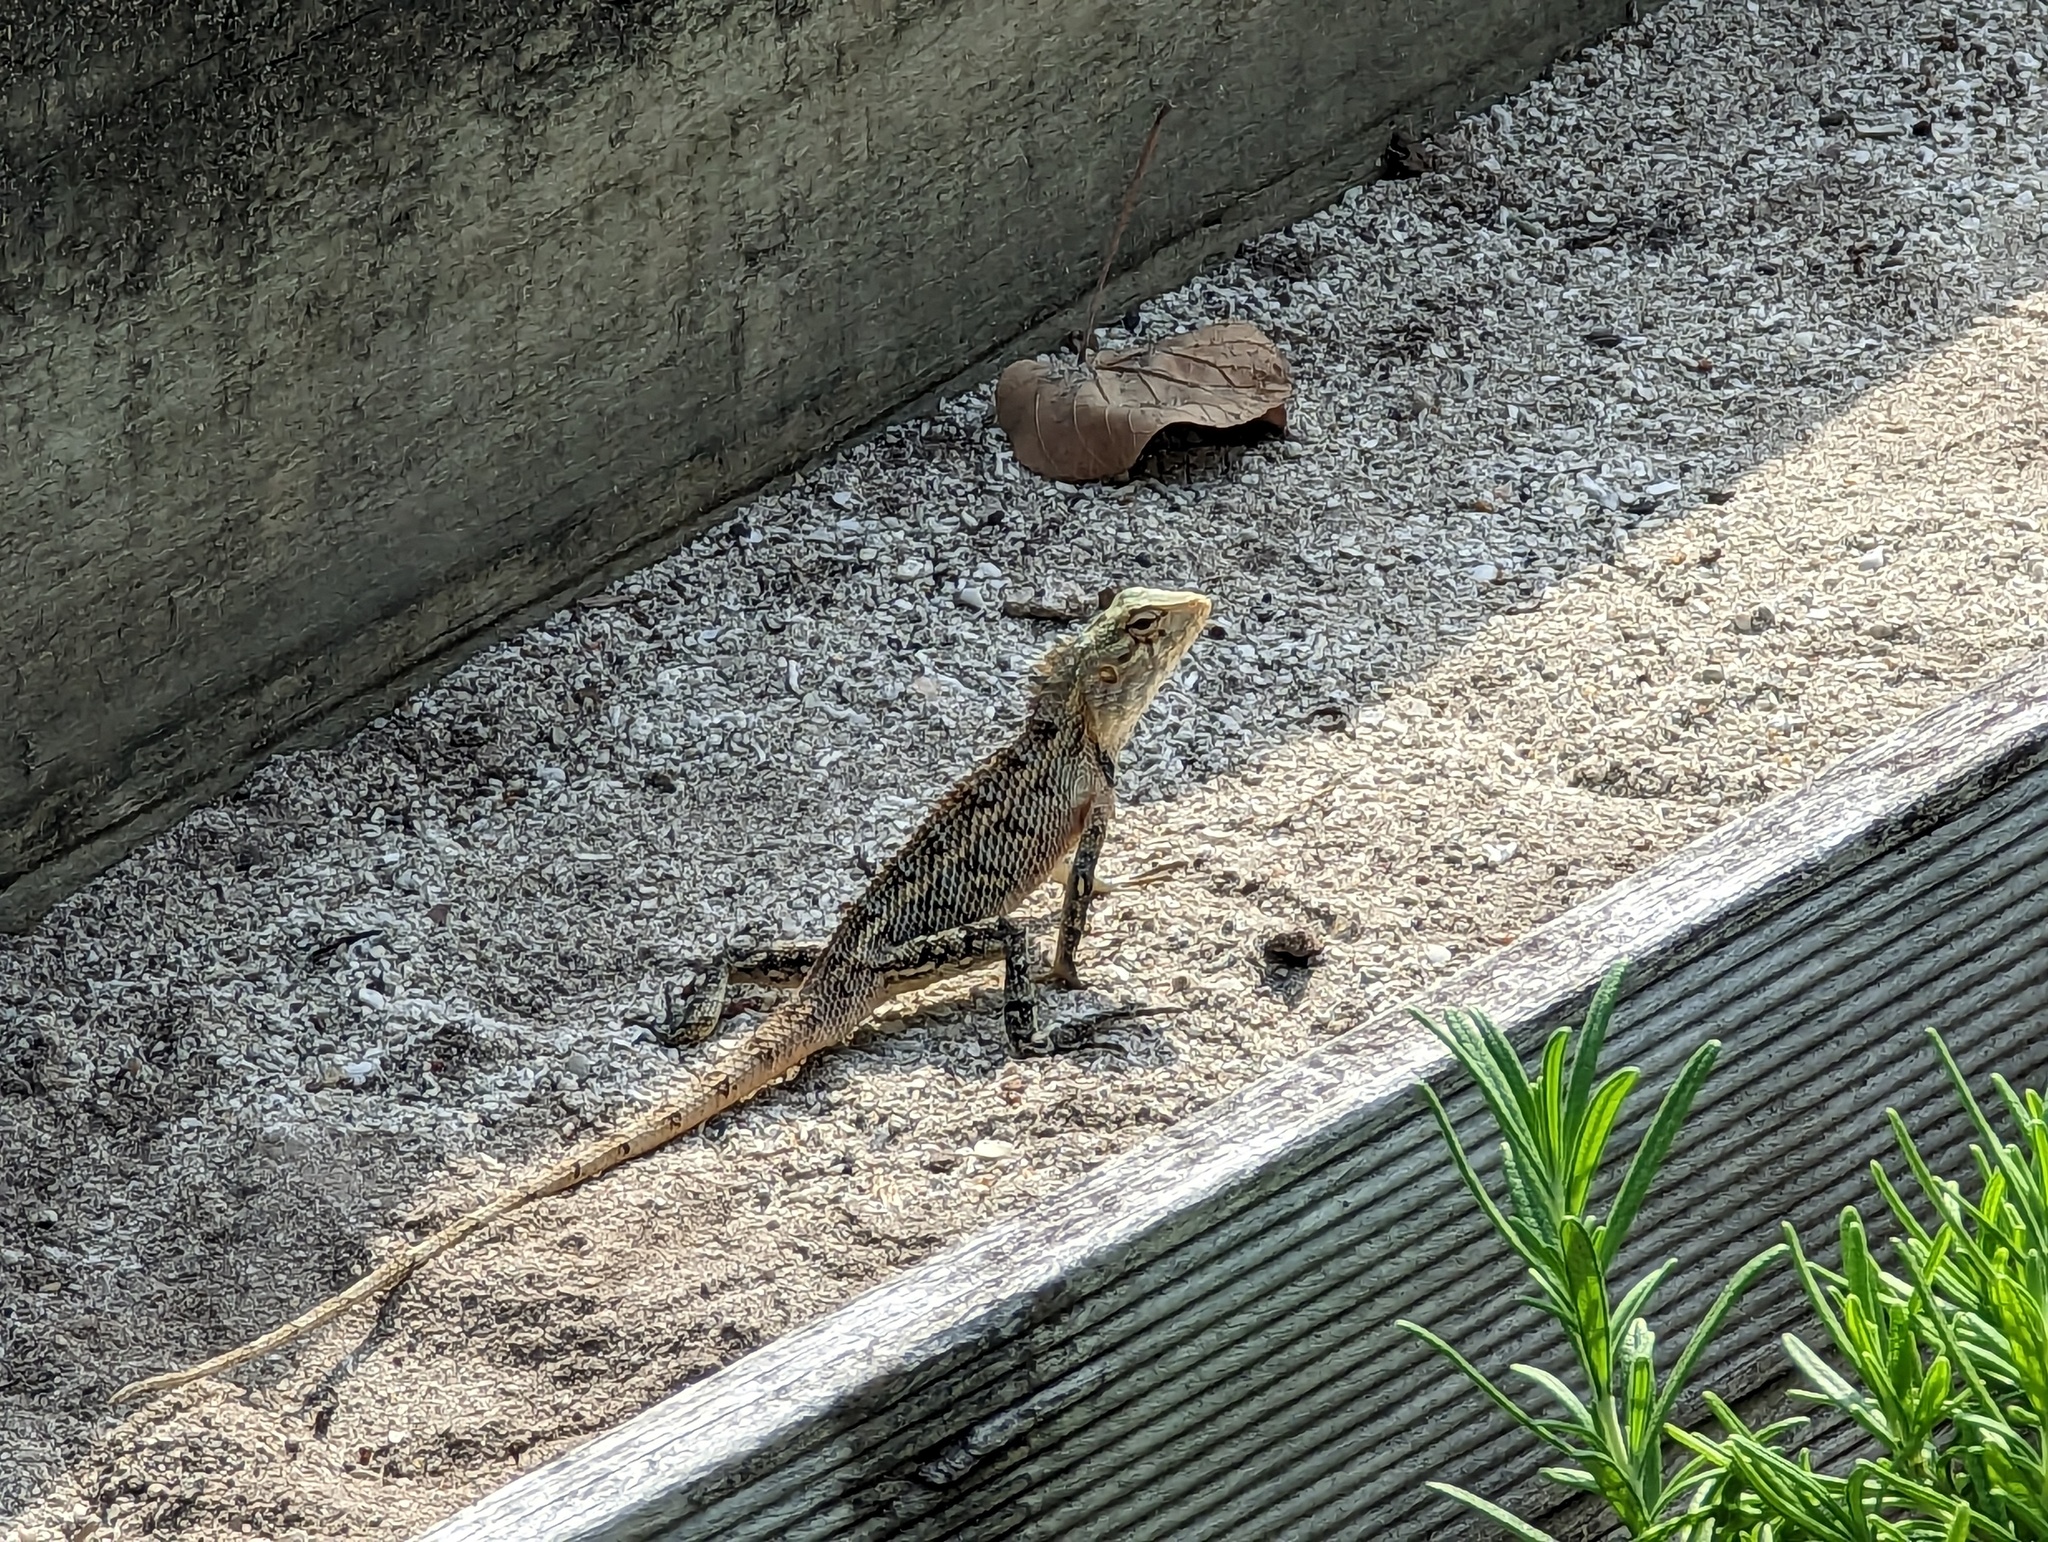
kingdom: Animalia
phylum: Chordata
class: Squamata
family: Agamidae
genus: Calotes
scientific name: Calotes versicolor
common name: Oriental garden lizard
